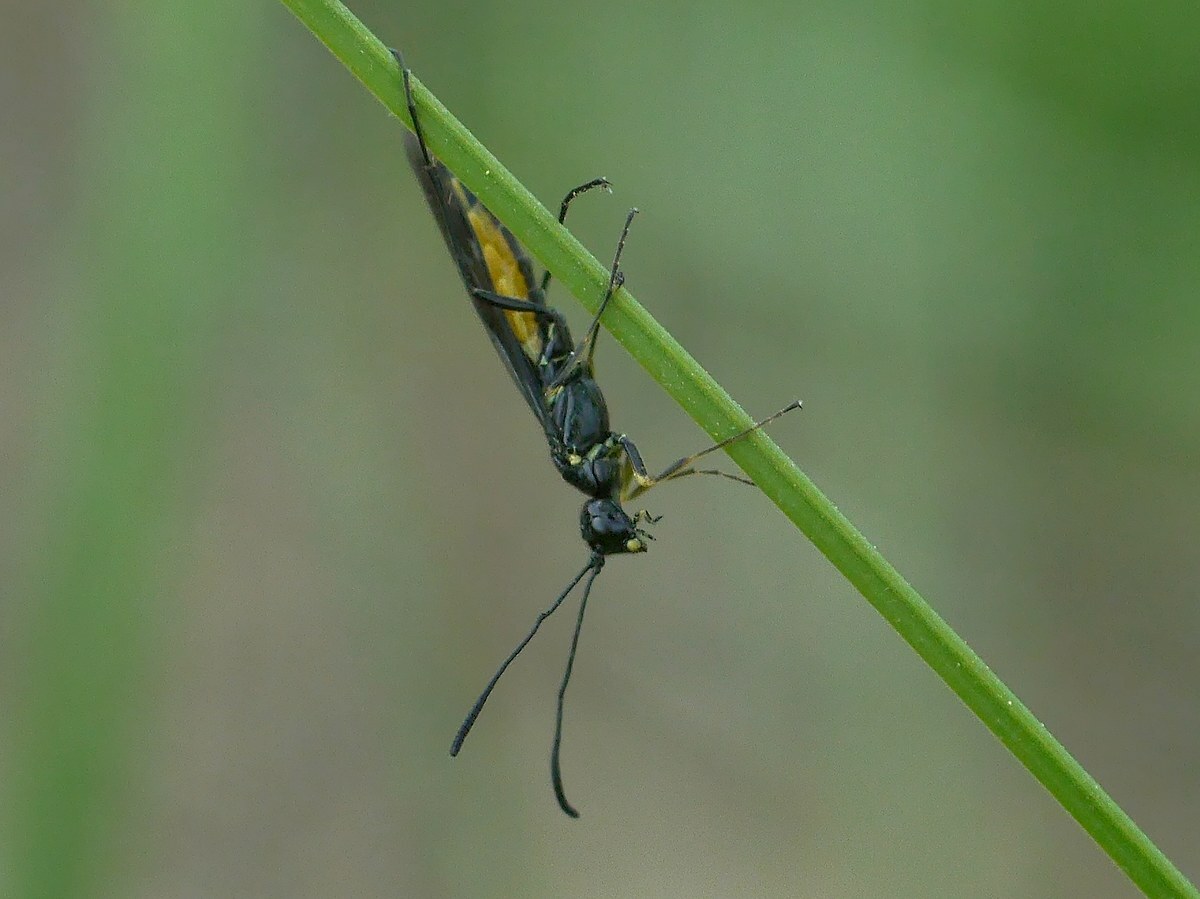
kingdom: Animalia
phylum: Arthropoda
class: Insecta
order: Hymenoptera
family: Cephidae
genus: Trachelus
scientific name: Trachelus tabidus
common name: Wasp
